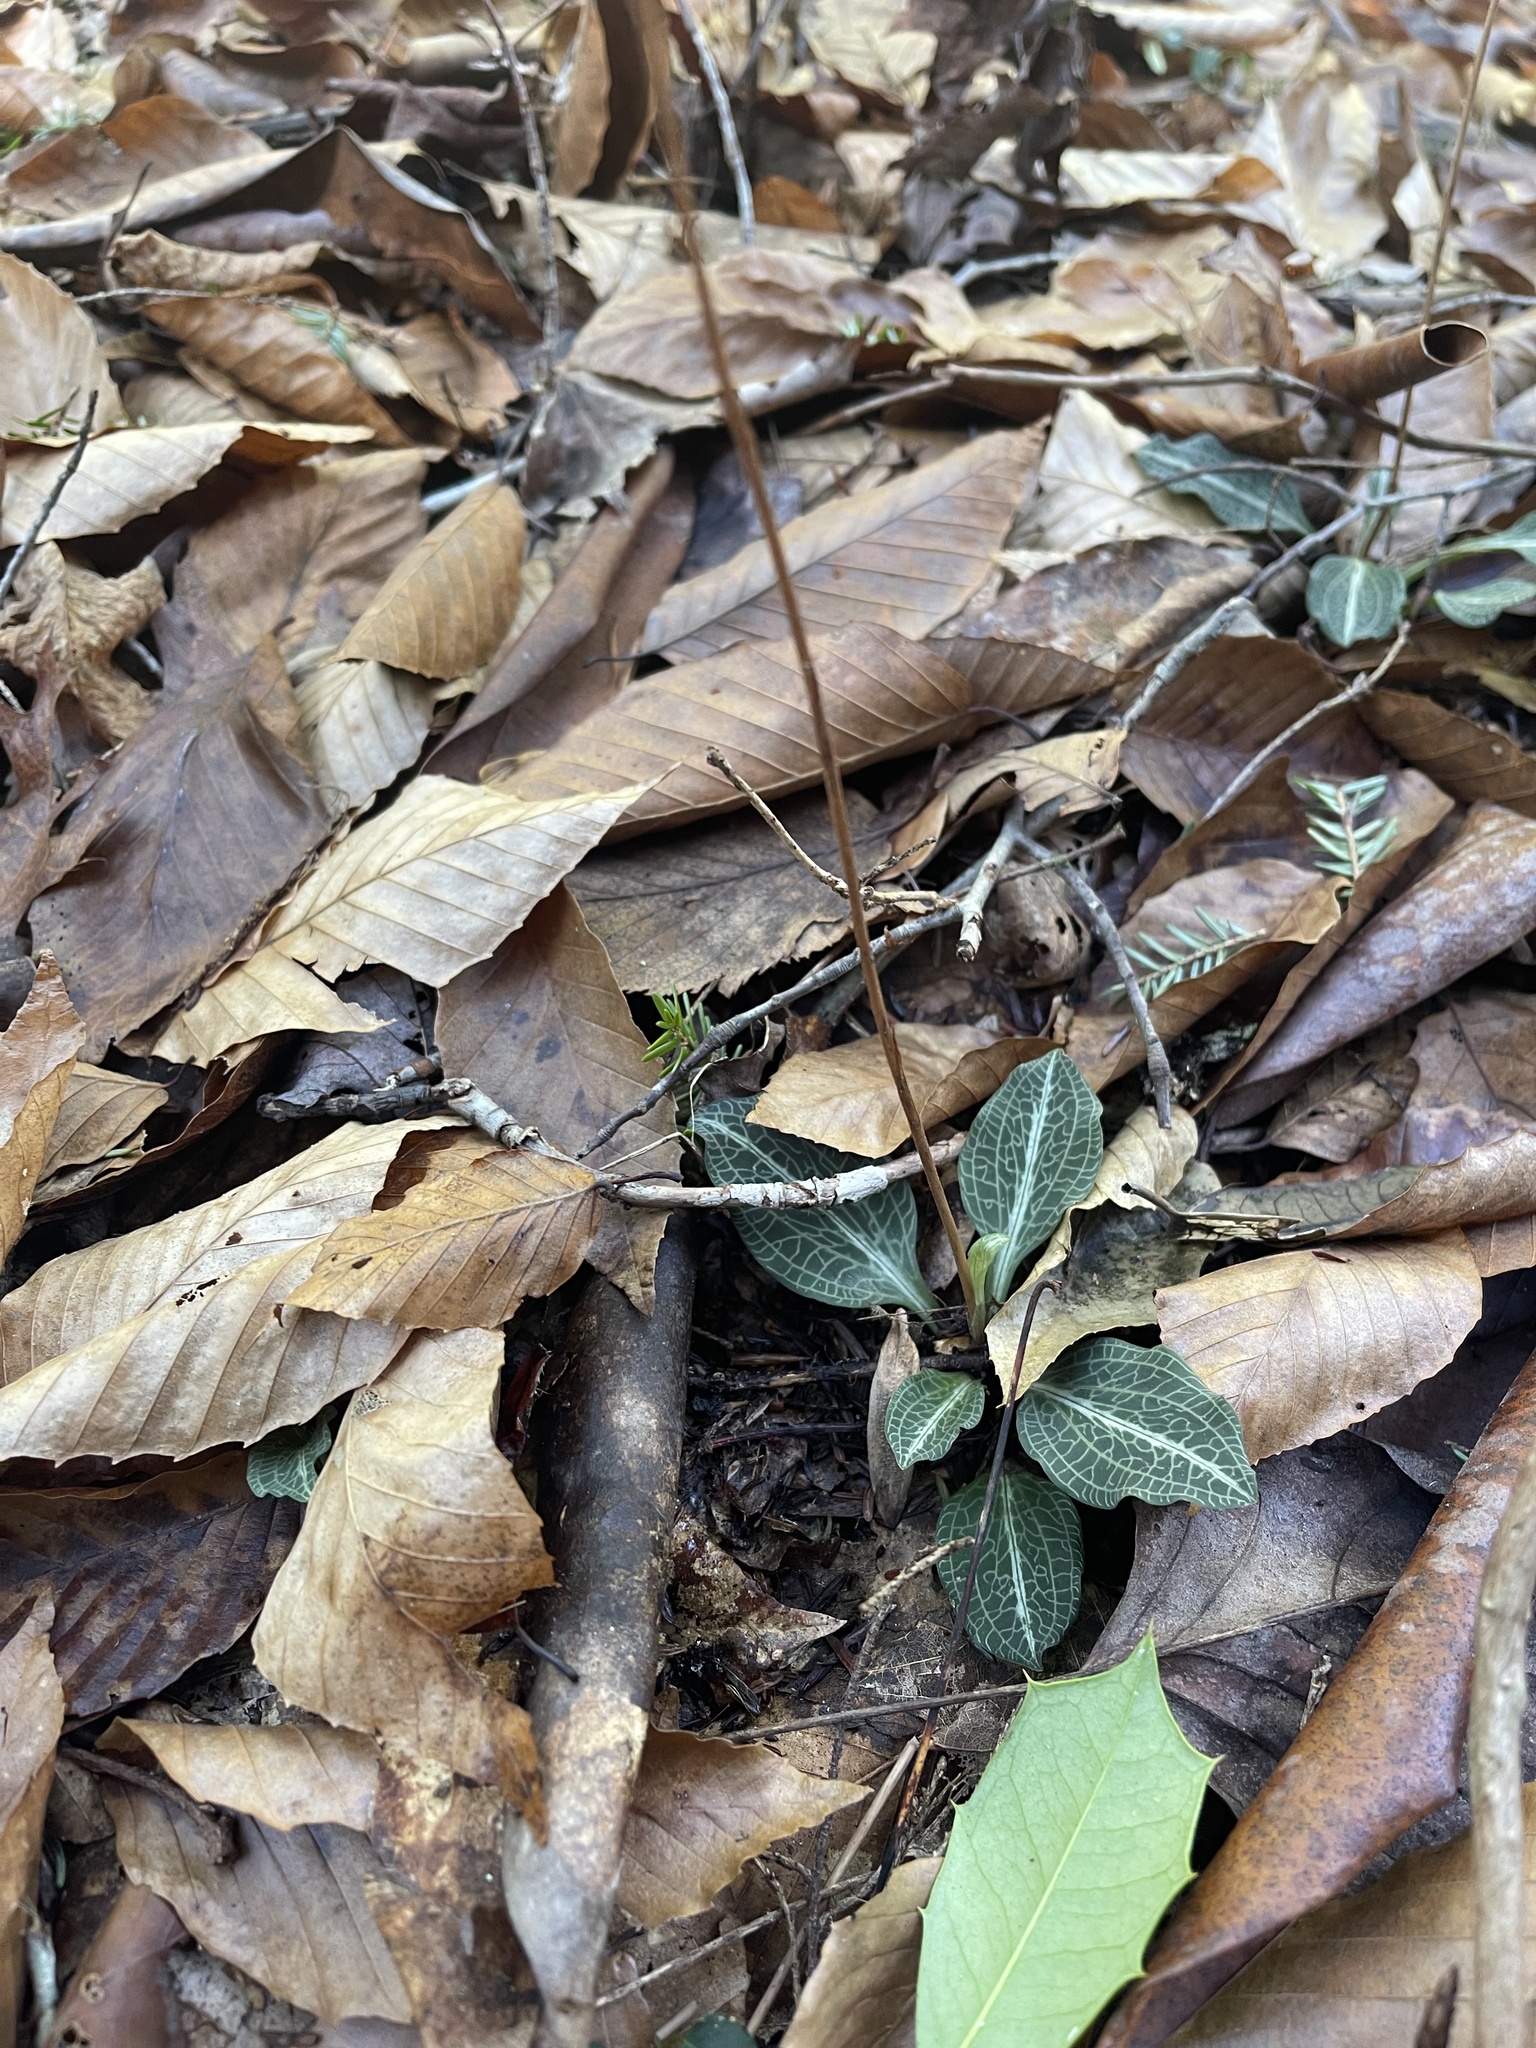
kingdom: Plantae
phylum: Tracheophyta
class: Liliopsida
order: Asparagales
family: Orchidaceae
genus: Goodyera
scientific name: Goodyera pubescens
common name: Downy rattlesnake-plantain
